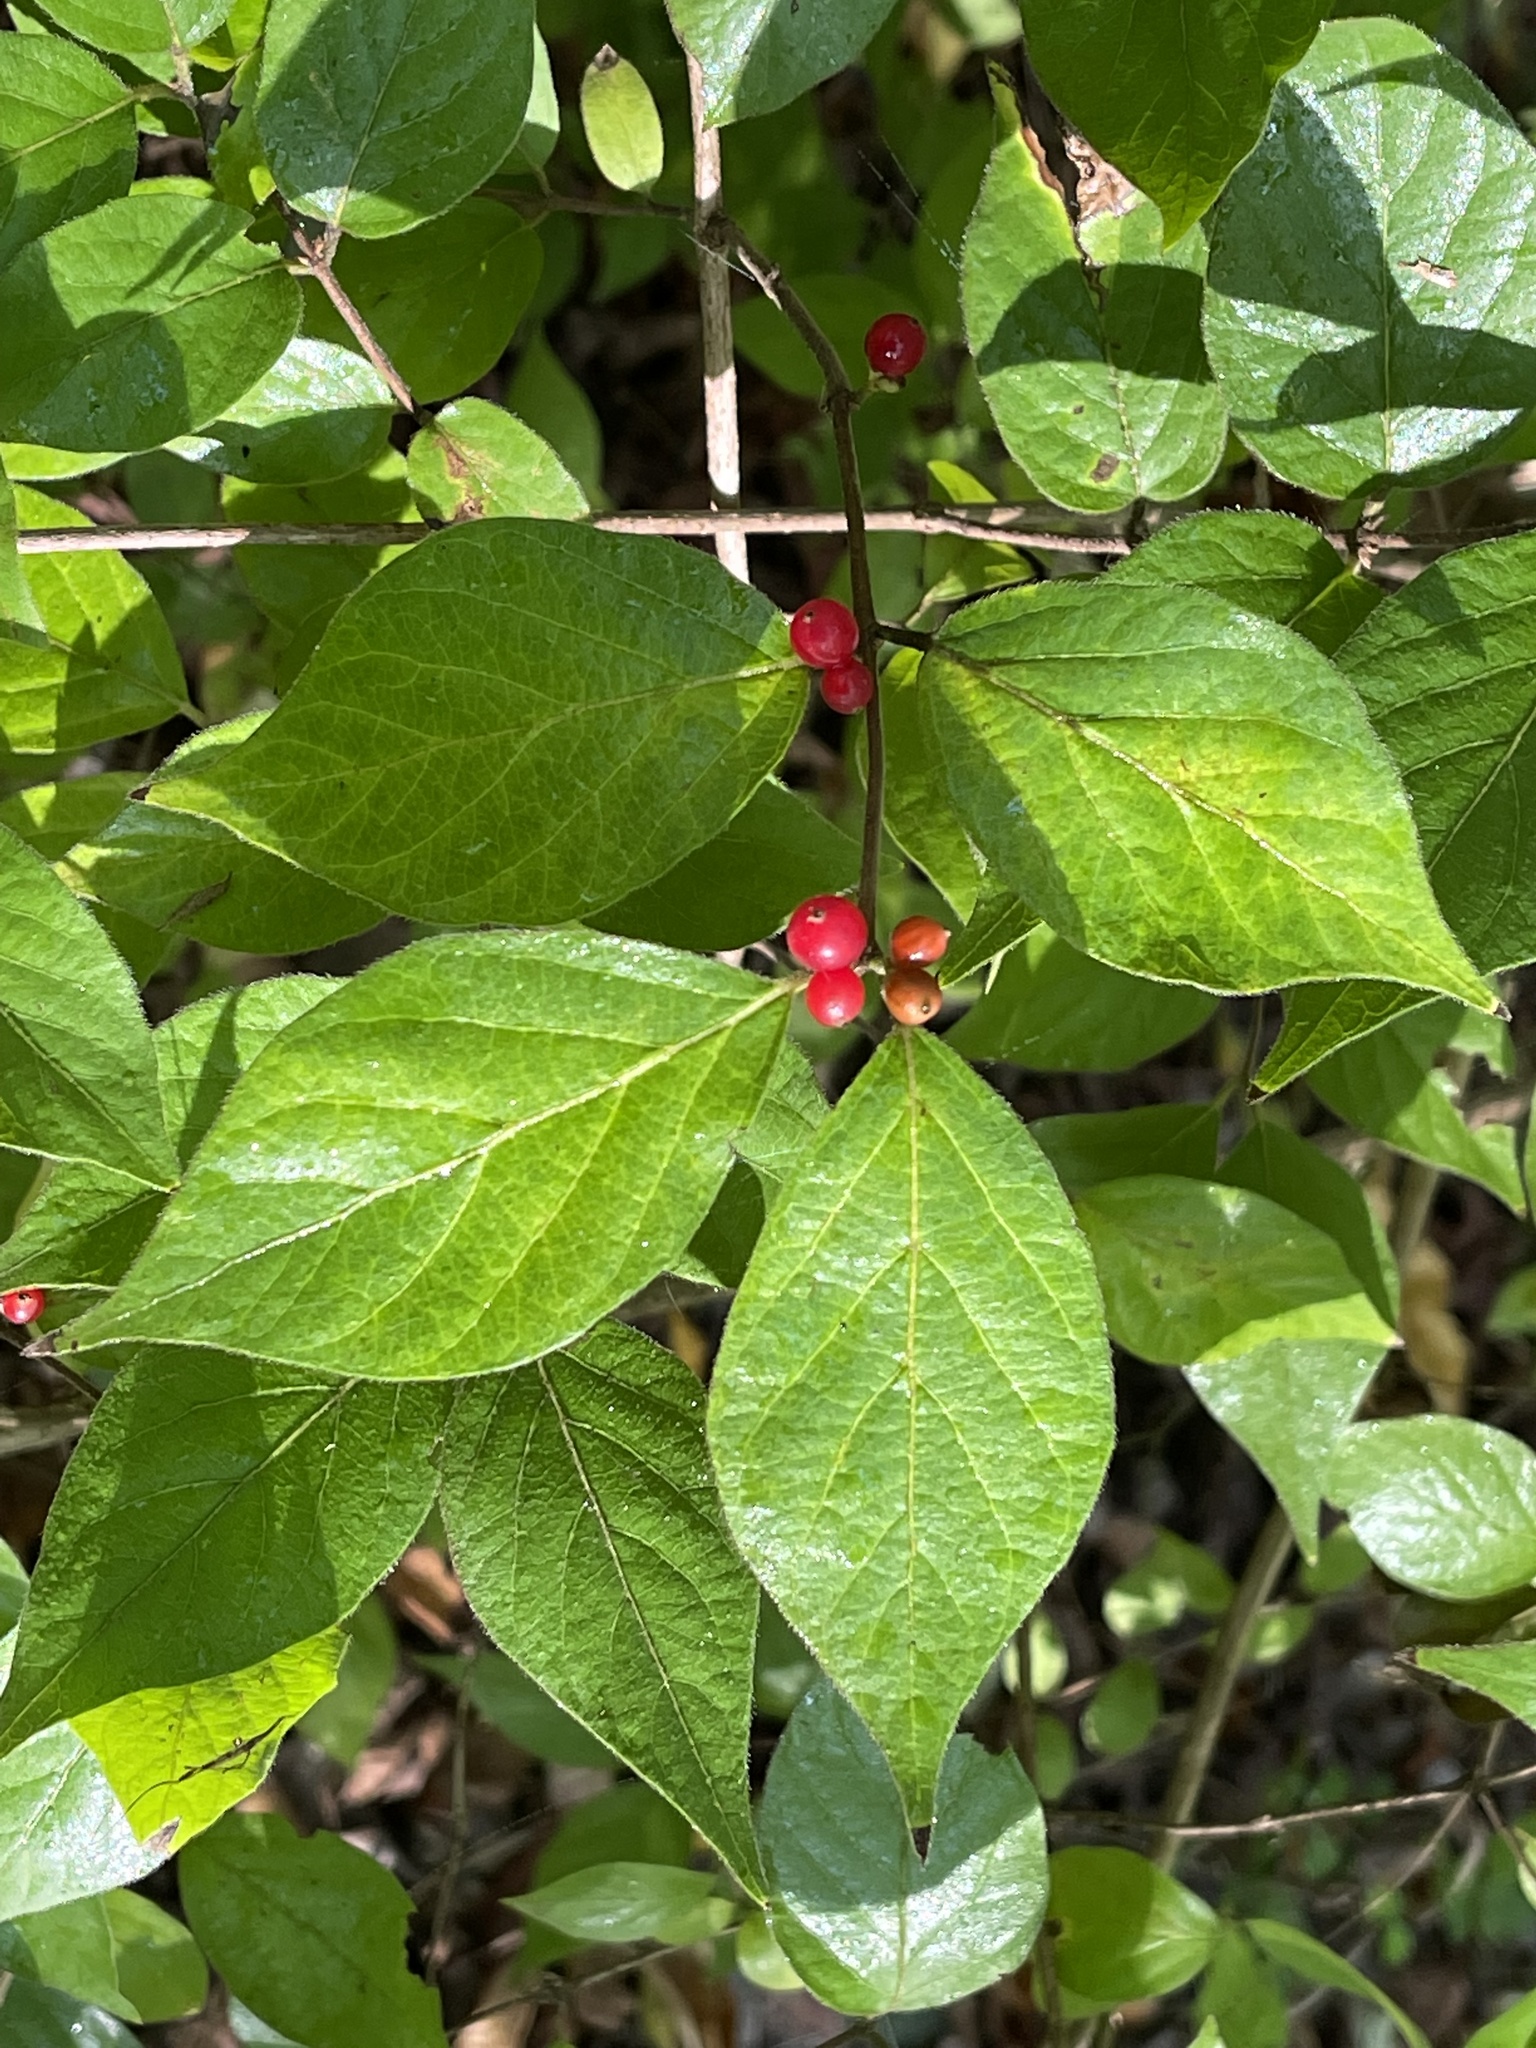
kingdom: Plantae
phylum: Tracheophyta
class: Magnoliopsida
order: Dipsacales
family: Caprifoliaceae
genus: Lonicera
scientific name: Lonicera maackii
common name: Amur honeysuckle
